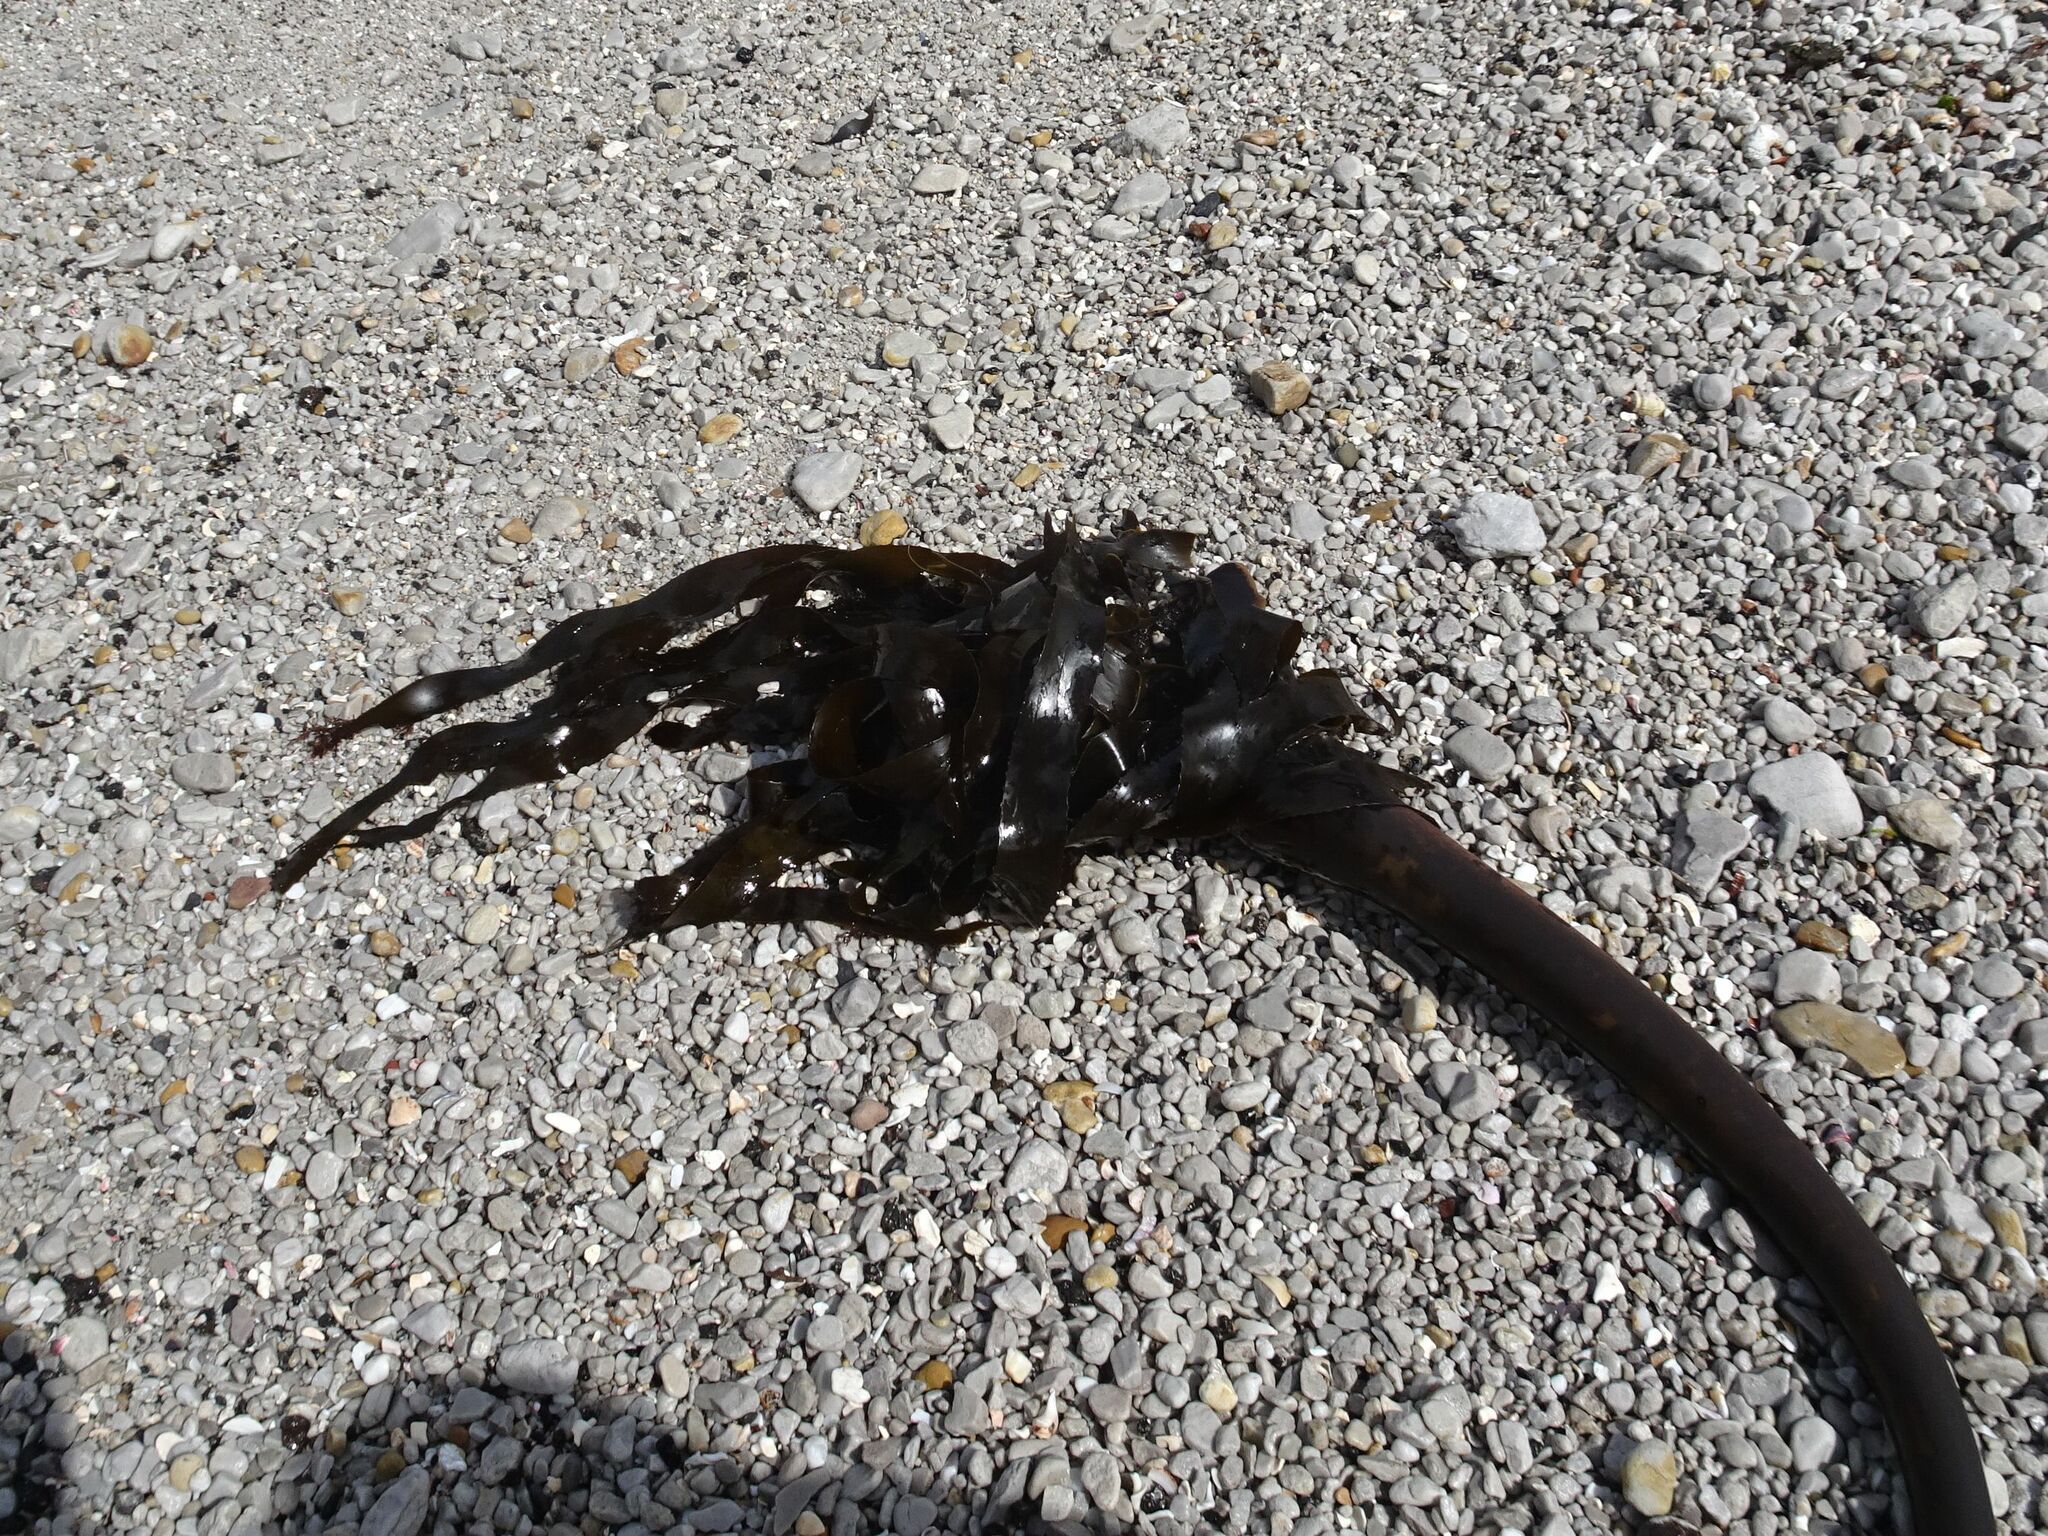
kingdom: Chromista
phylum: Ochrophyta
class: Phaeophyceae
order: Laminariales
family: Lessoniaceae
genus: Ecklonia
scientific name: Ecklonia
